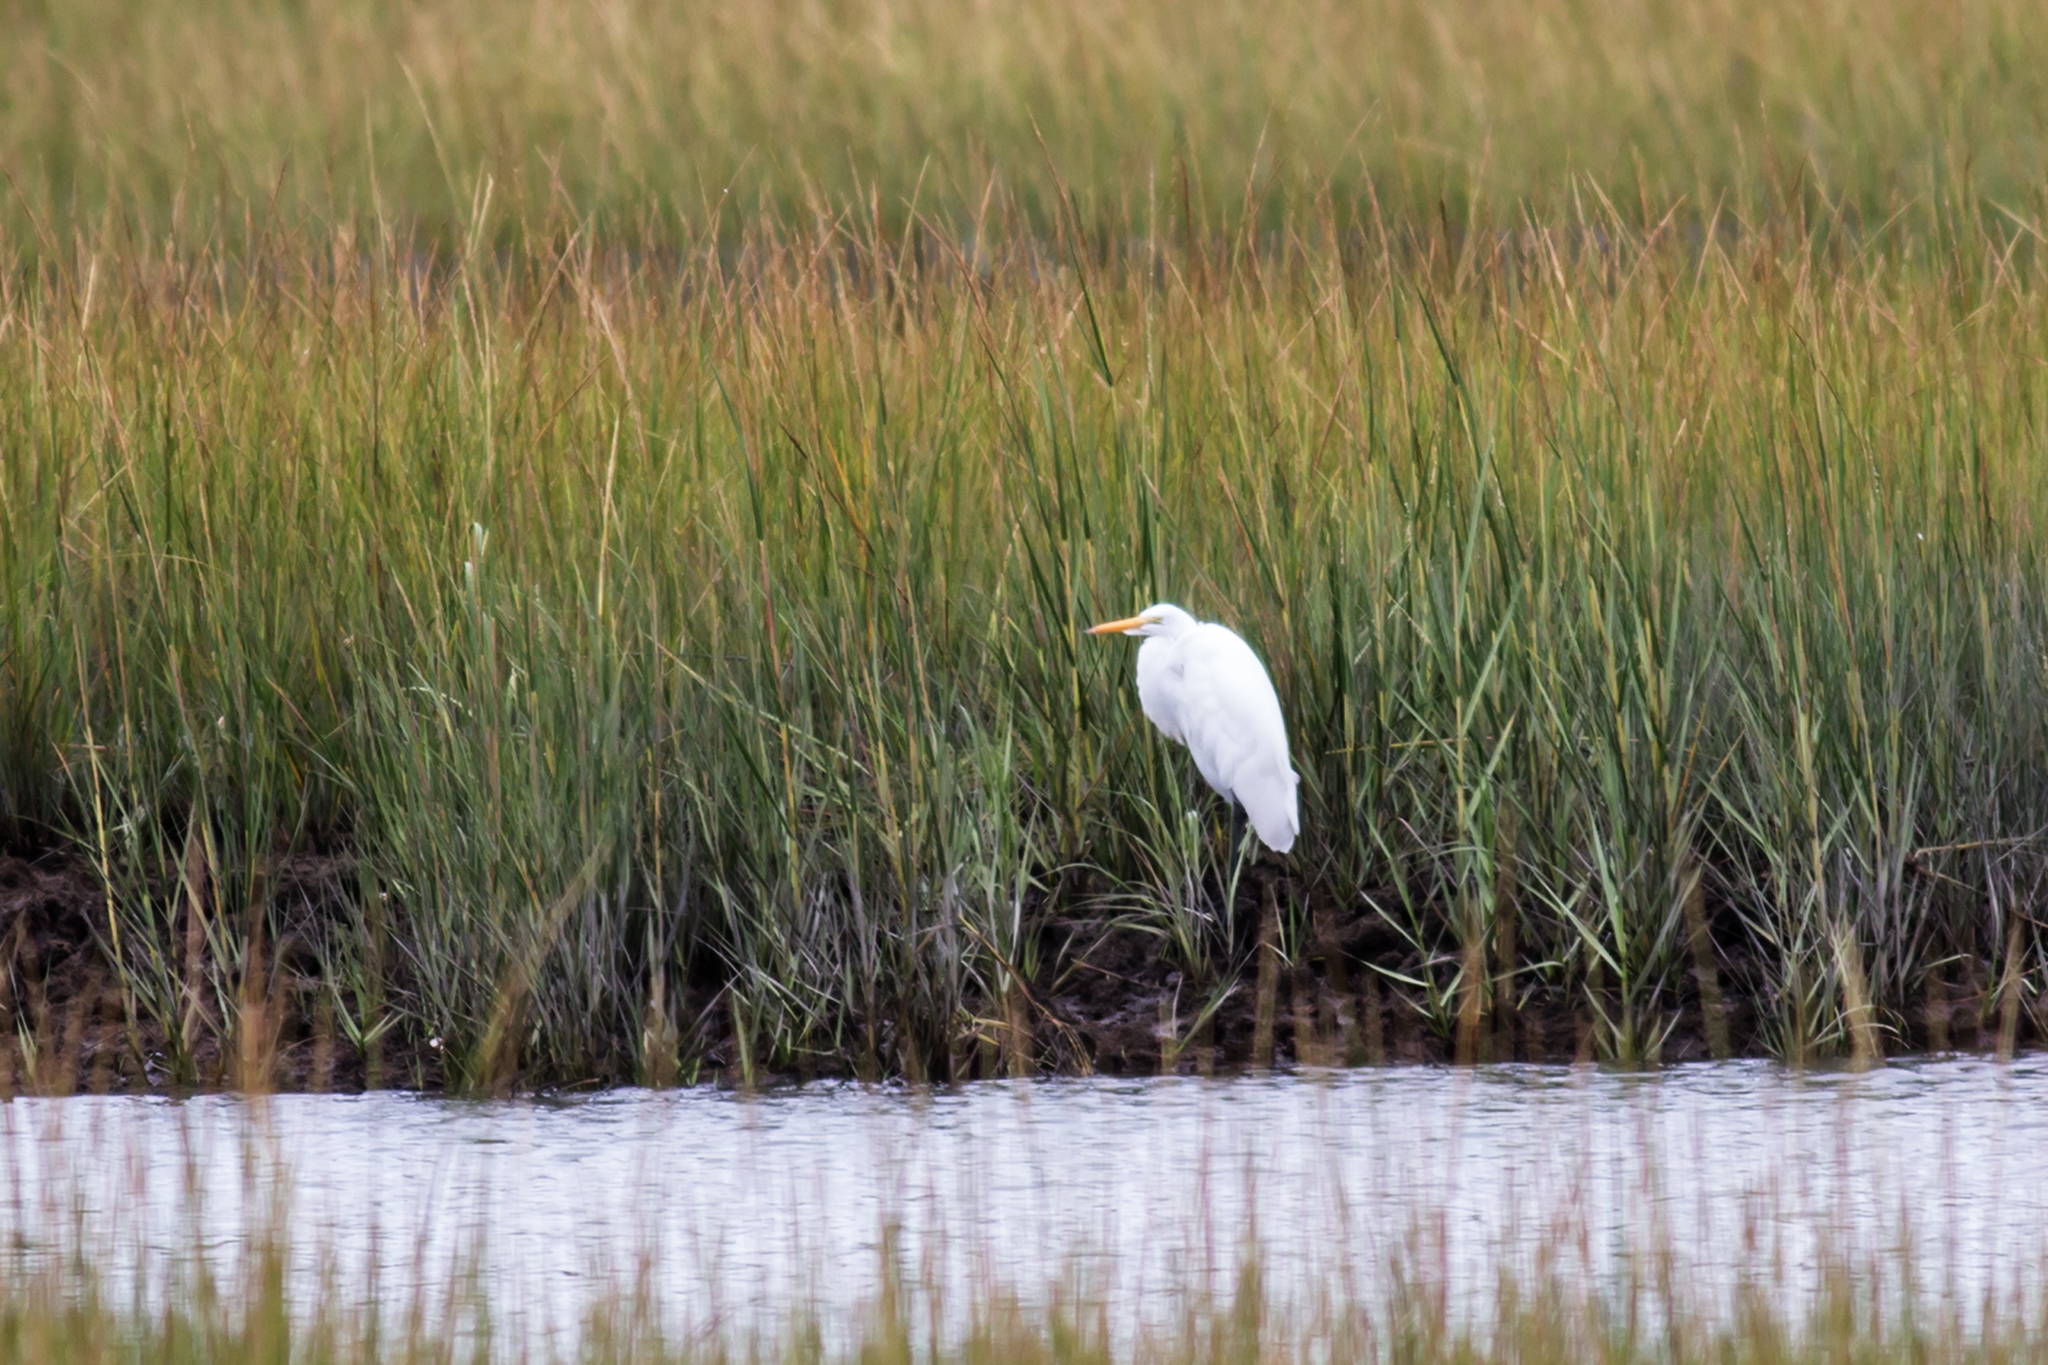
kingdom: Animalia
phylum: Chordata
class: Aves
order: Pelecaniformes
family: Ardeidae
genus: Ardea
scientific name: Ardea alba
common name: Great egret
